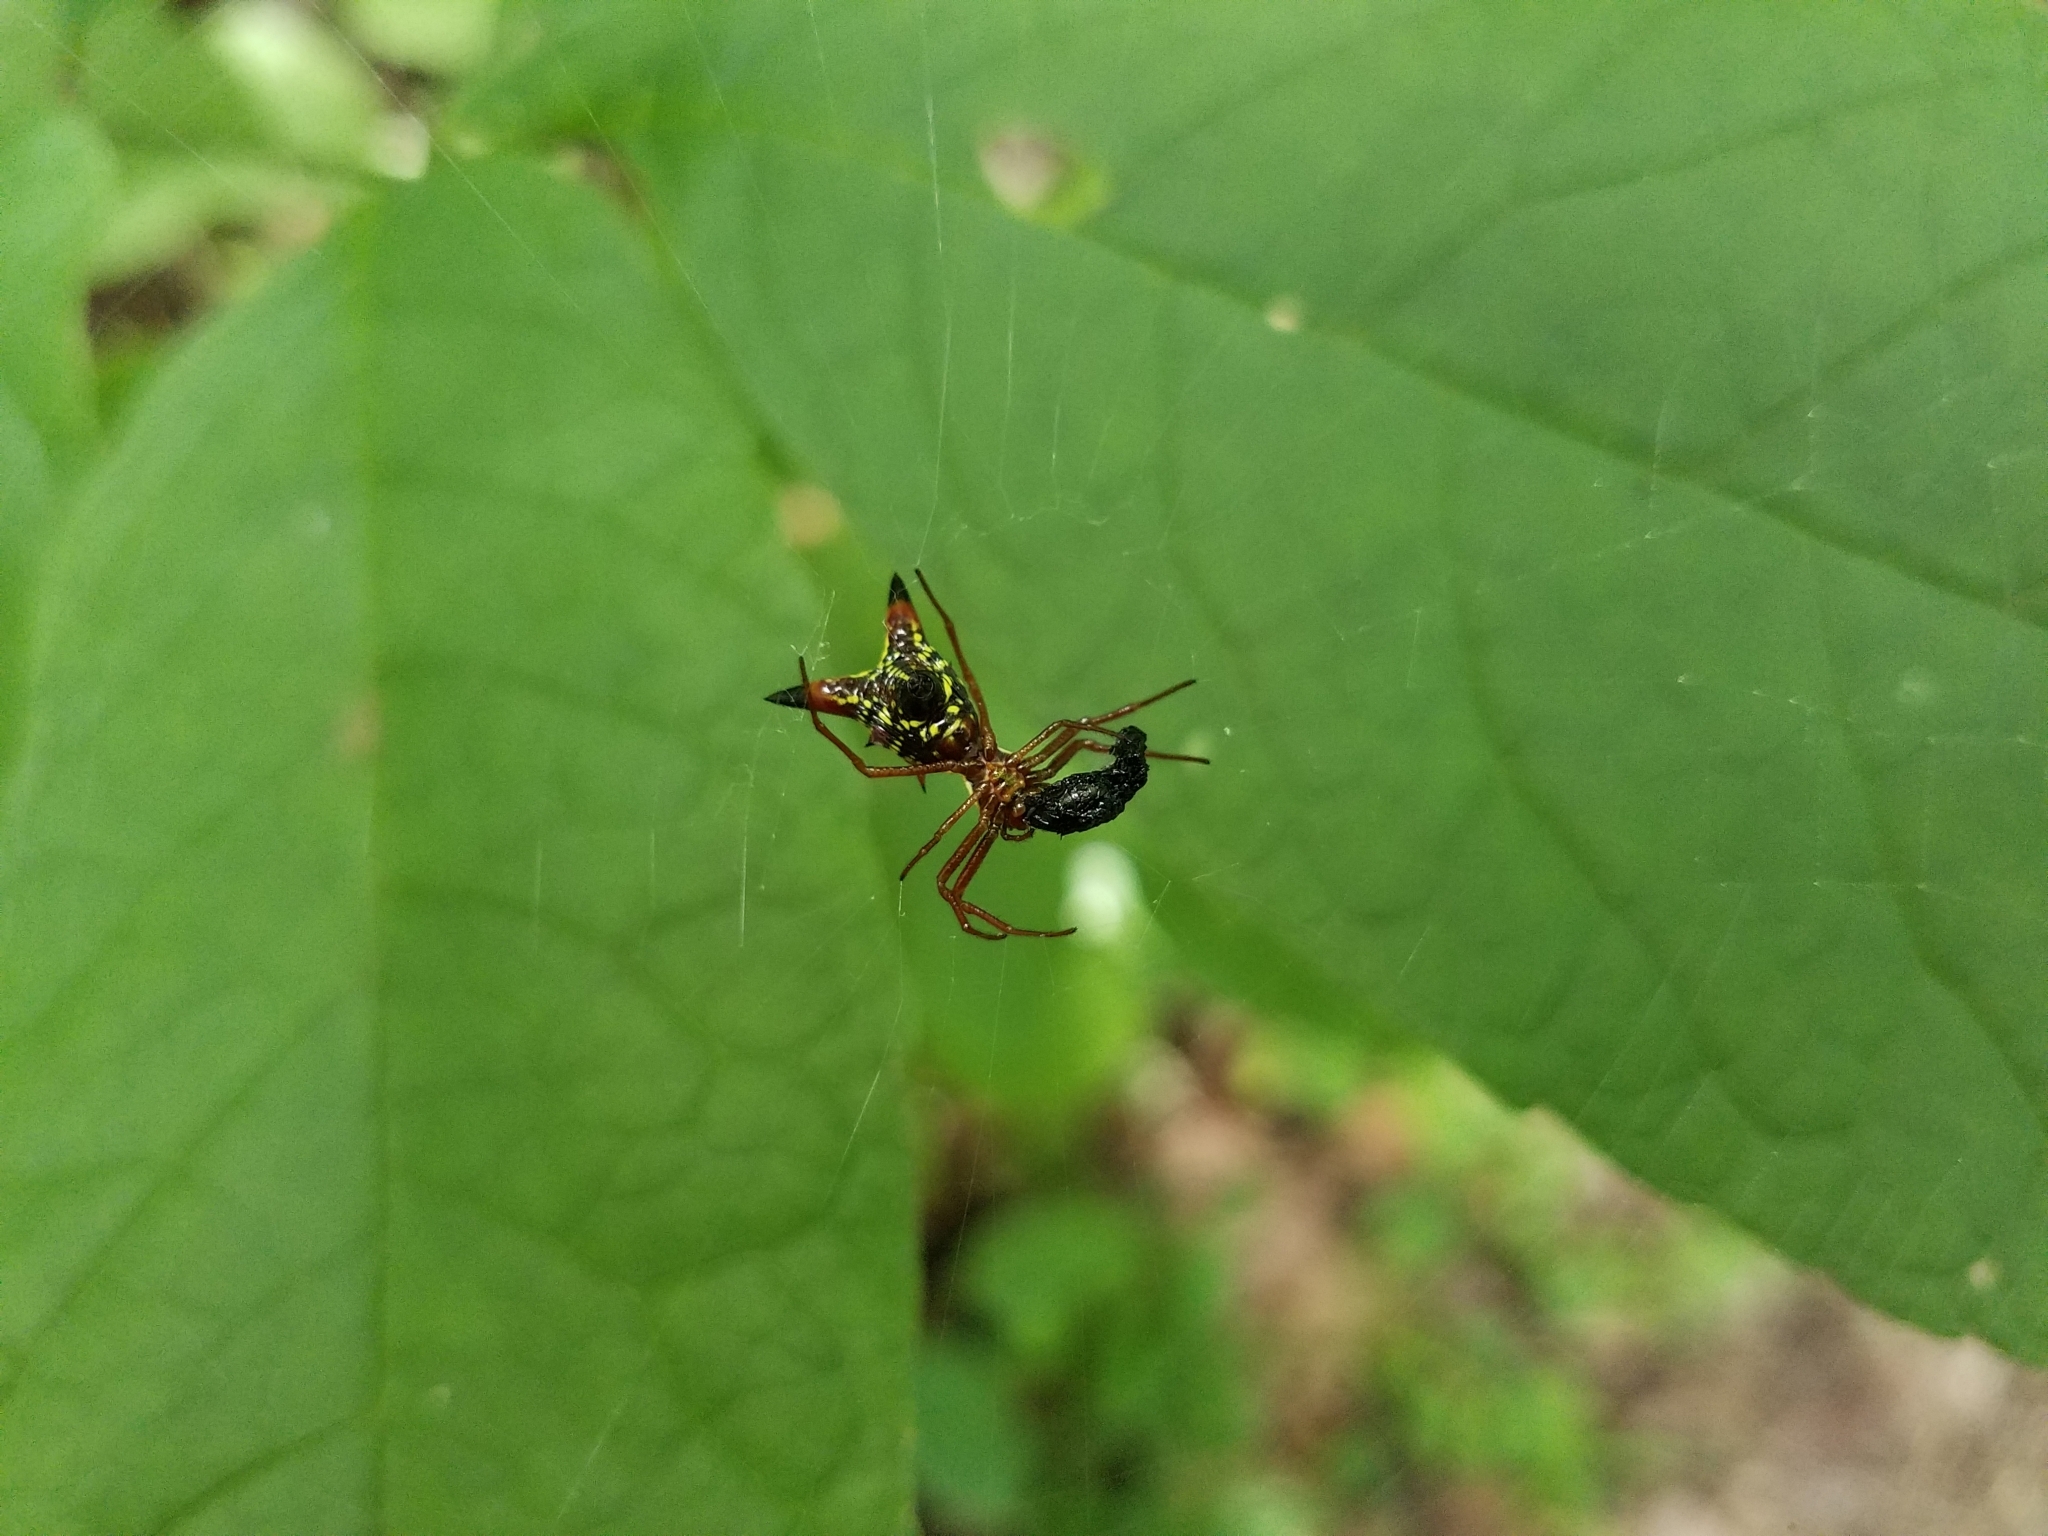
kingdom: Animalia
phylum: Arthropoda
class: Arachnida
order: Araneae
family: Araneidae
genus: Micrathena
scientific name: Micrathena sagittata
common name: Orb weavers
